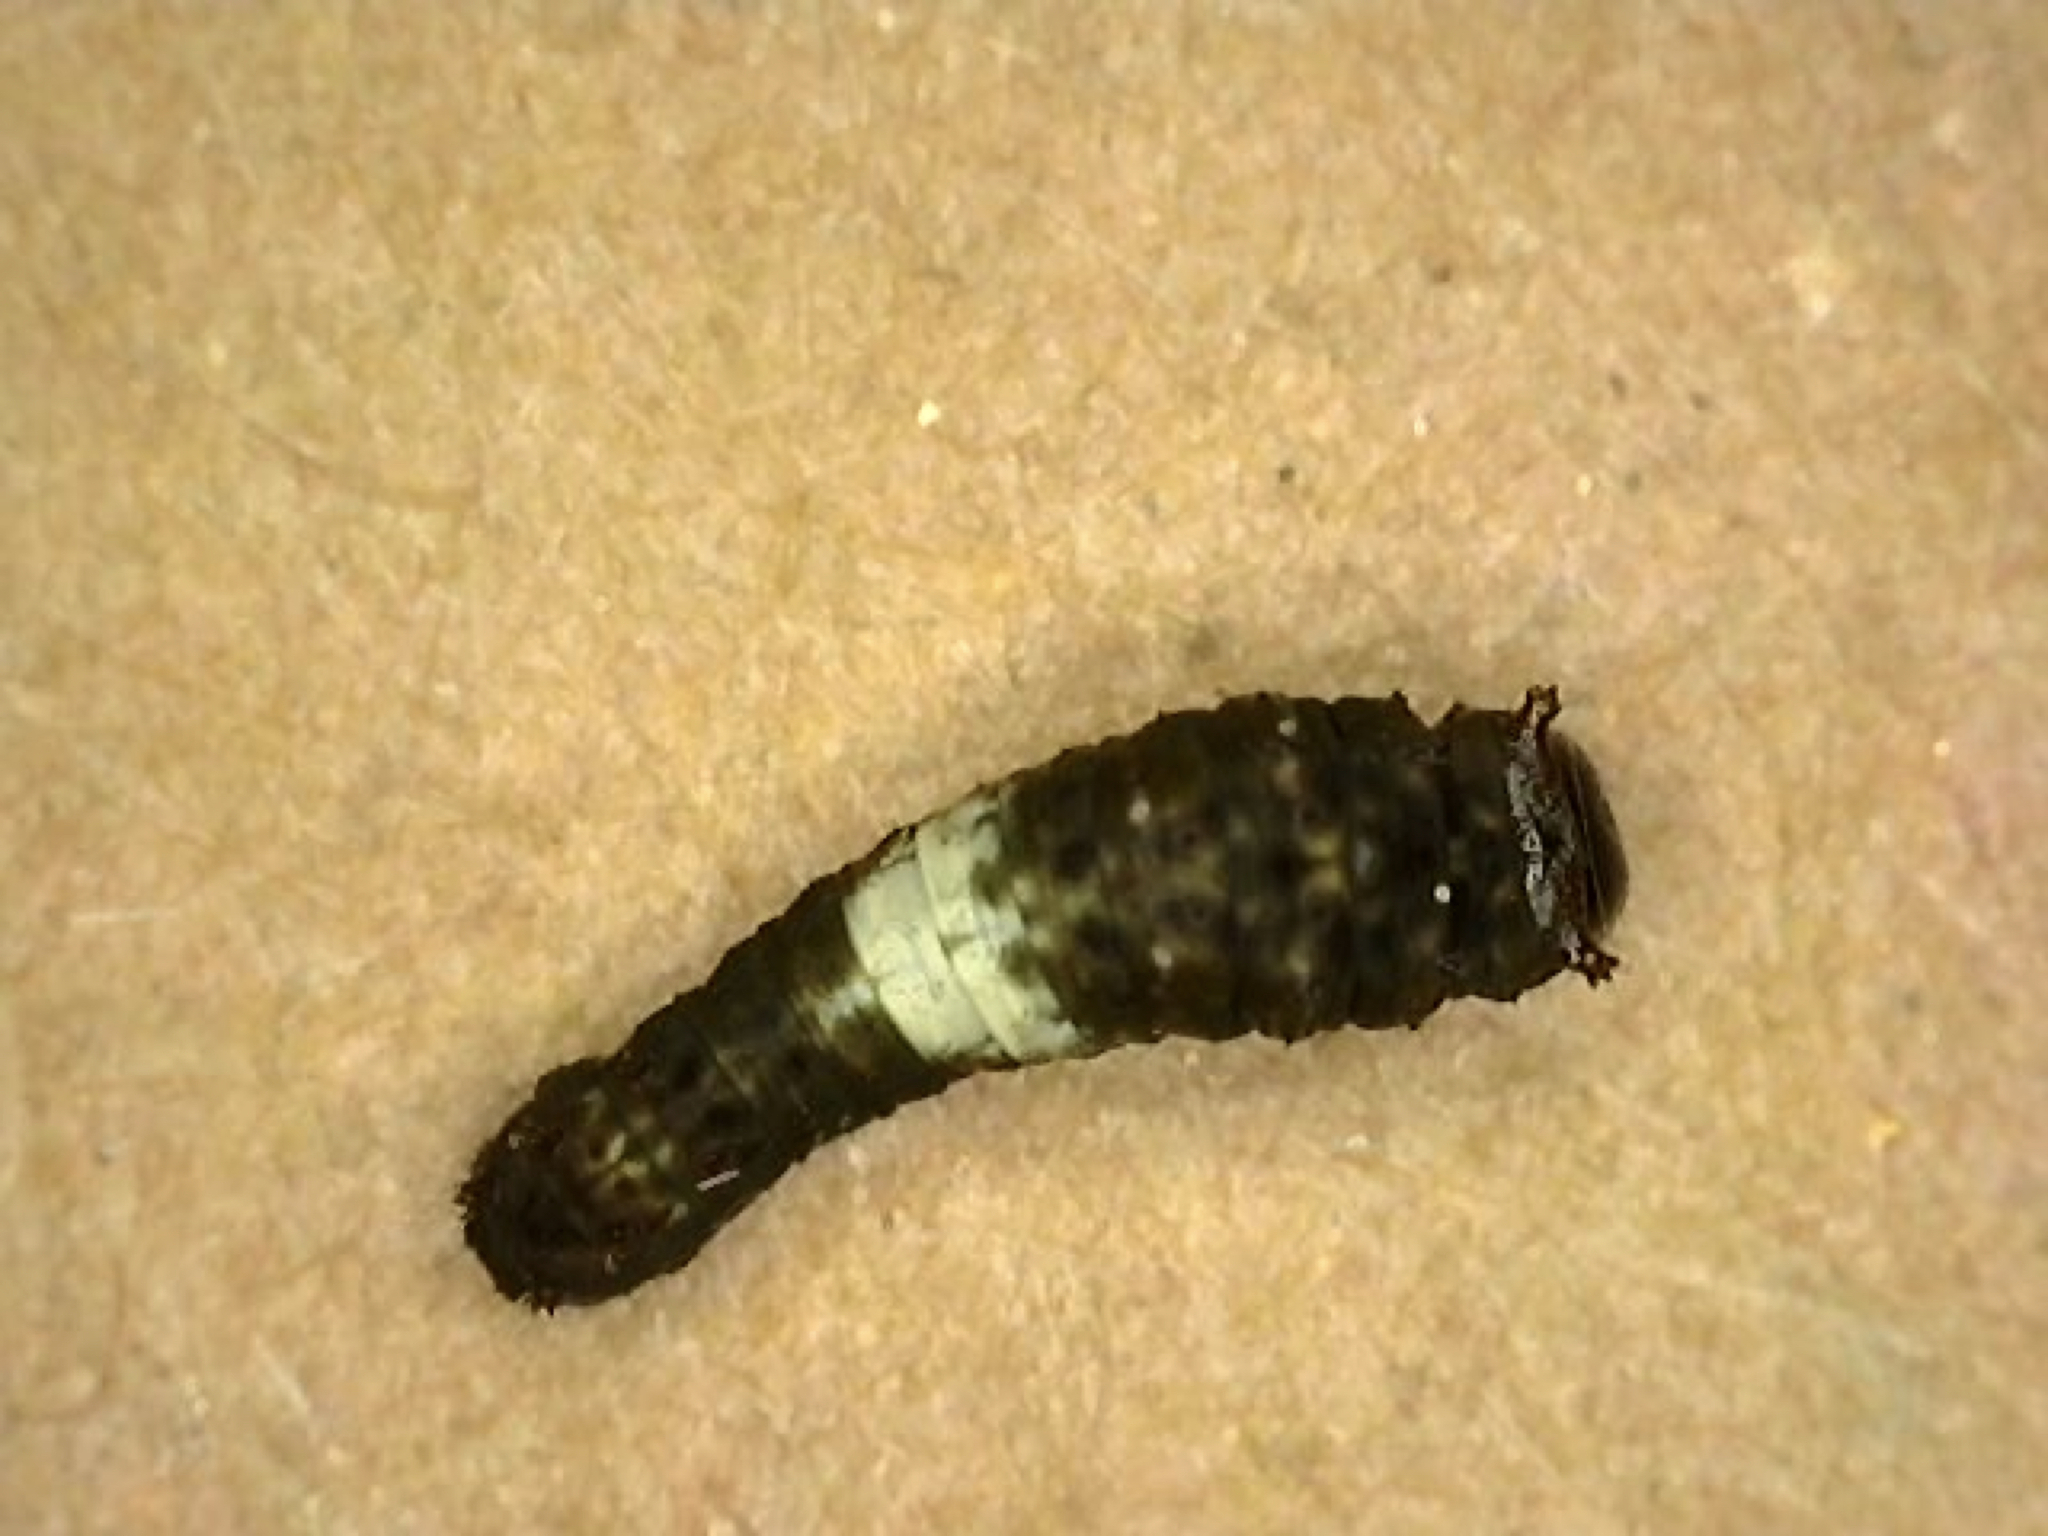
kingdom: Animalia
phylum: Arthropoda
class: Insecta
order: Lepidoptera
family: Papilionidae
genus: Papilio
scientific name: Papilio glaucus
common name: Tiger swallowtail
